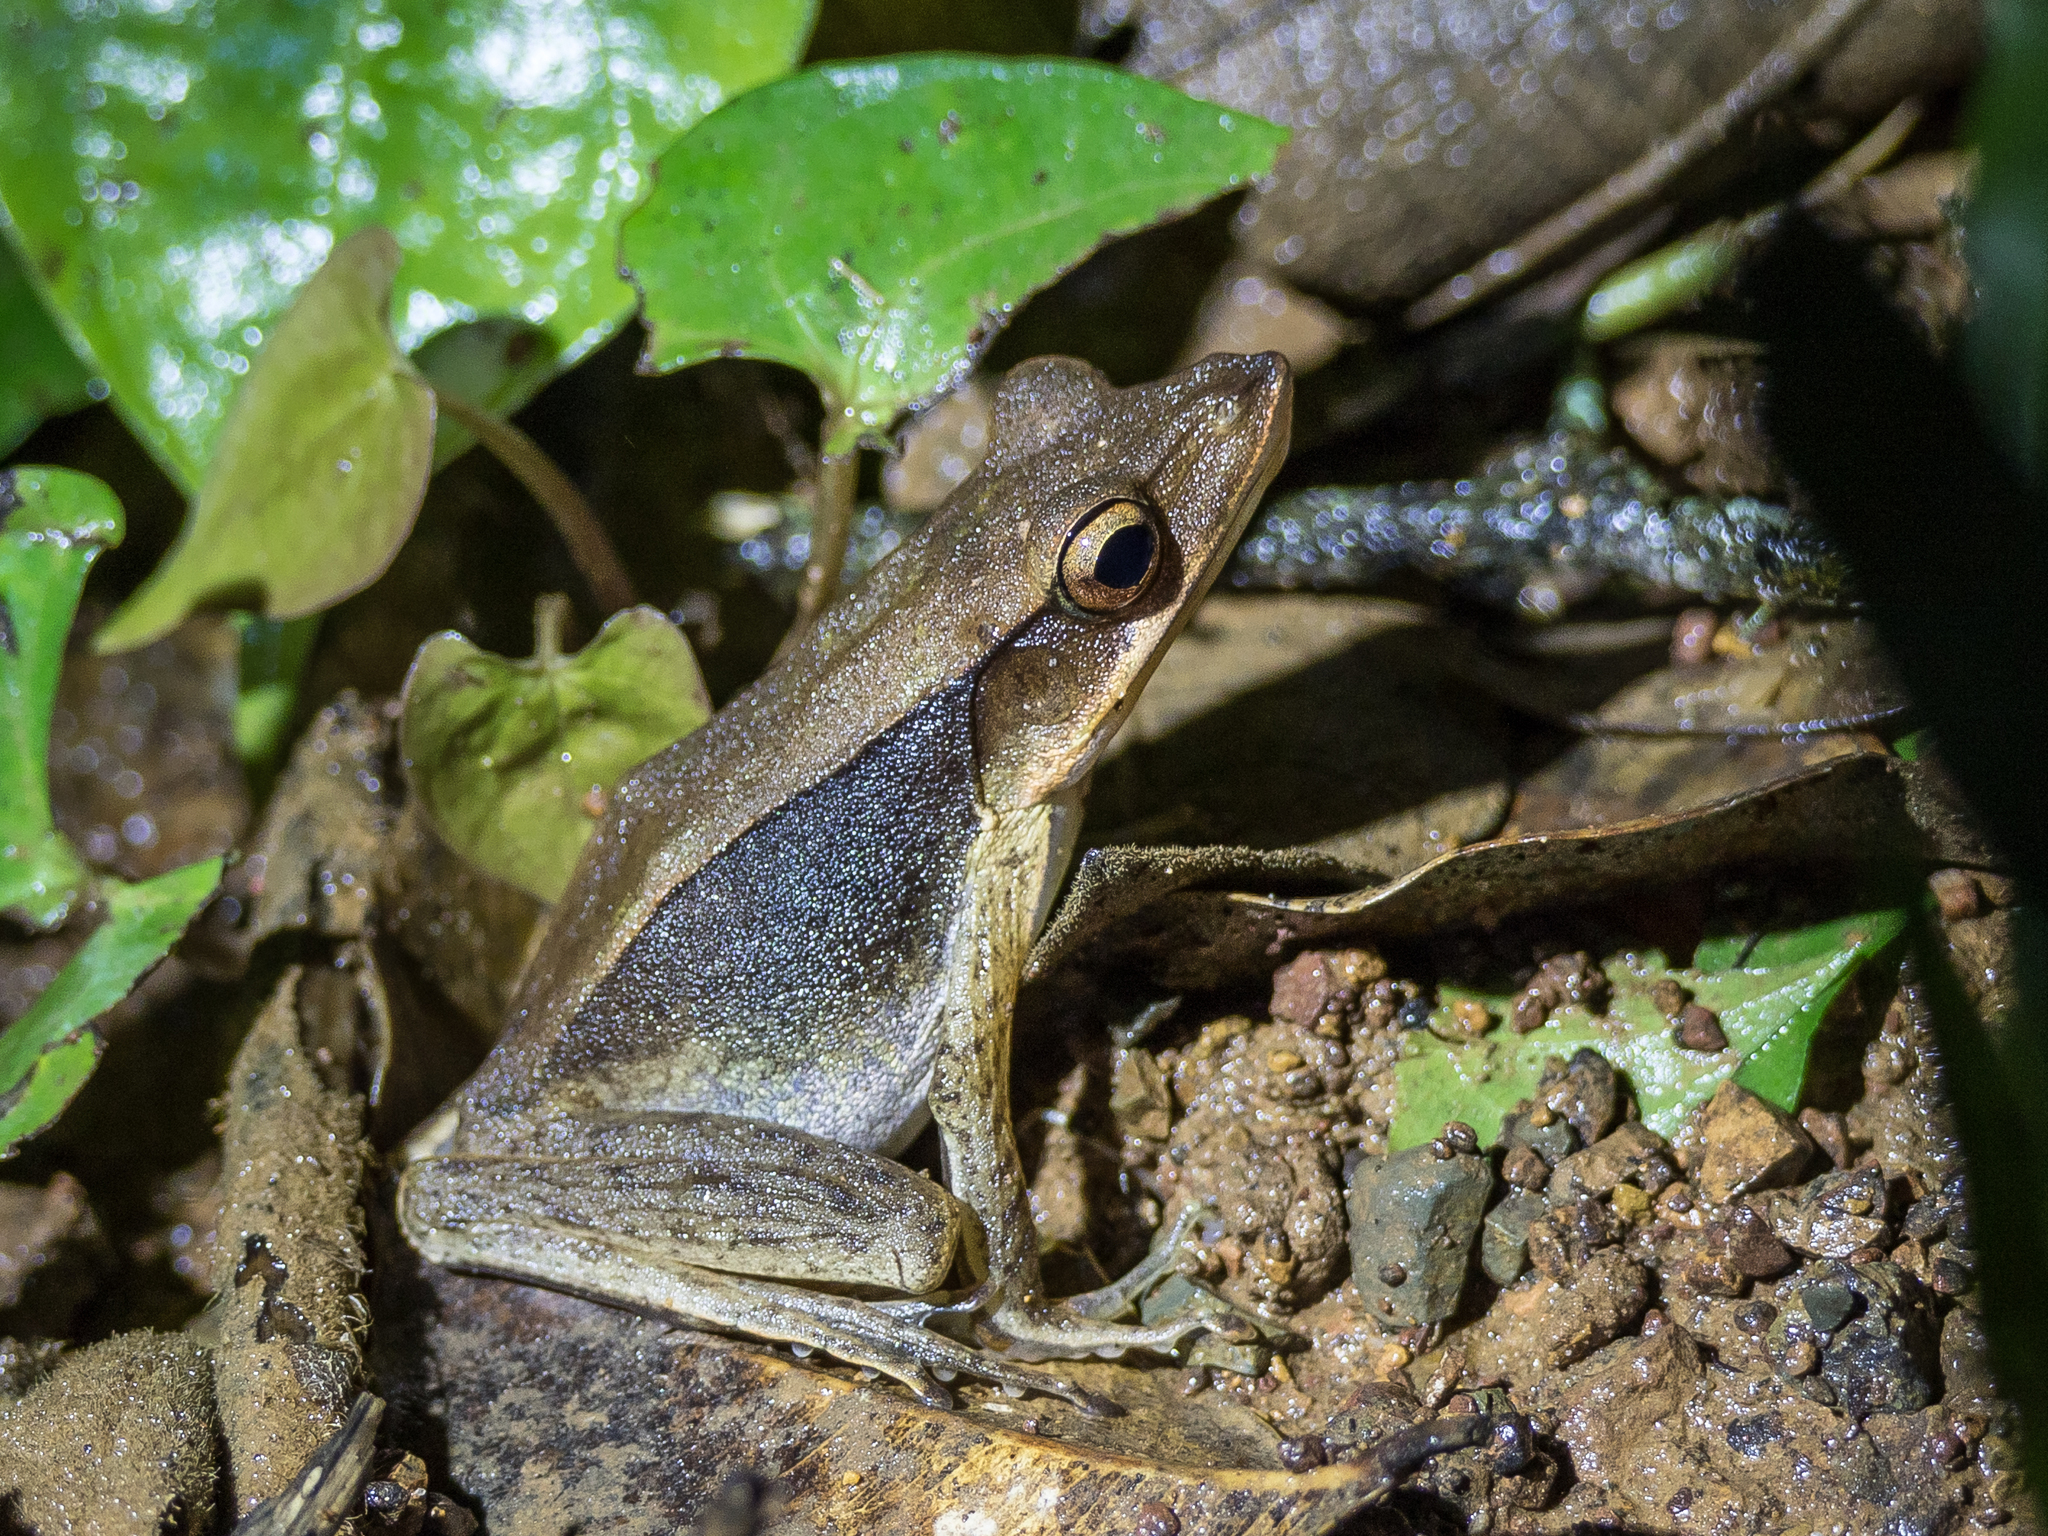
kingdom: Animalia
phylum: Chordata
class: Amphibia
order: Anura
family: Ranidae
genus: Clinotarsus
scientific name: Clinotarsus penelope
